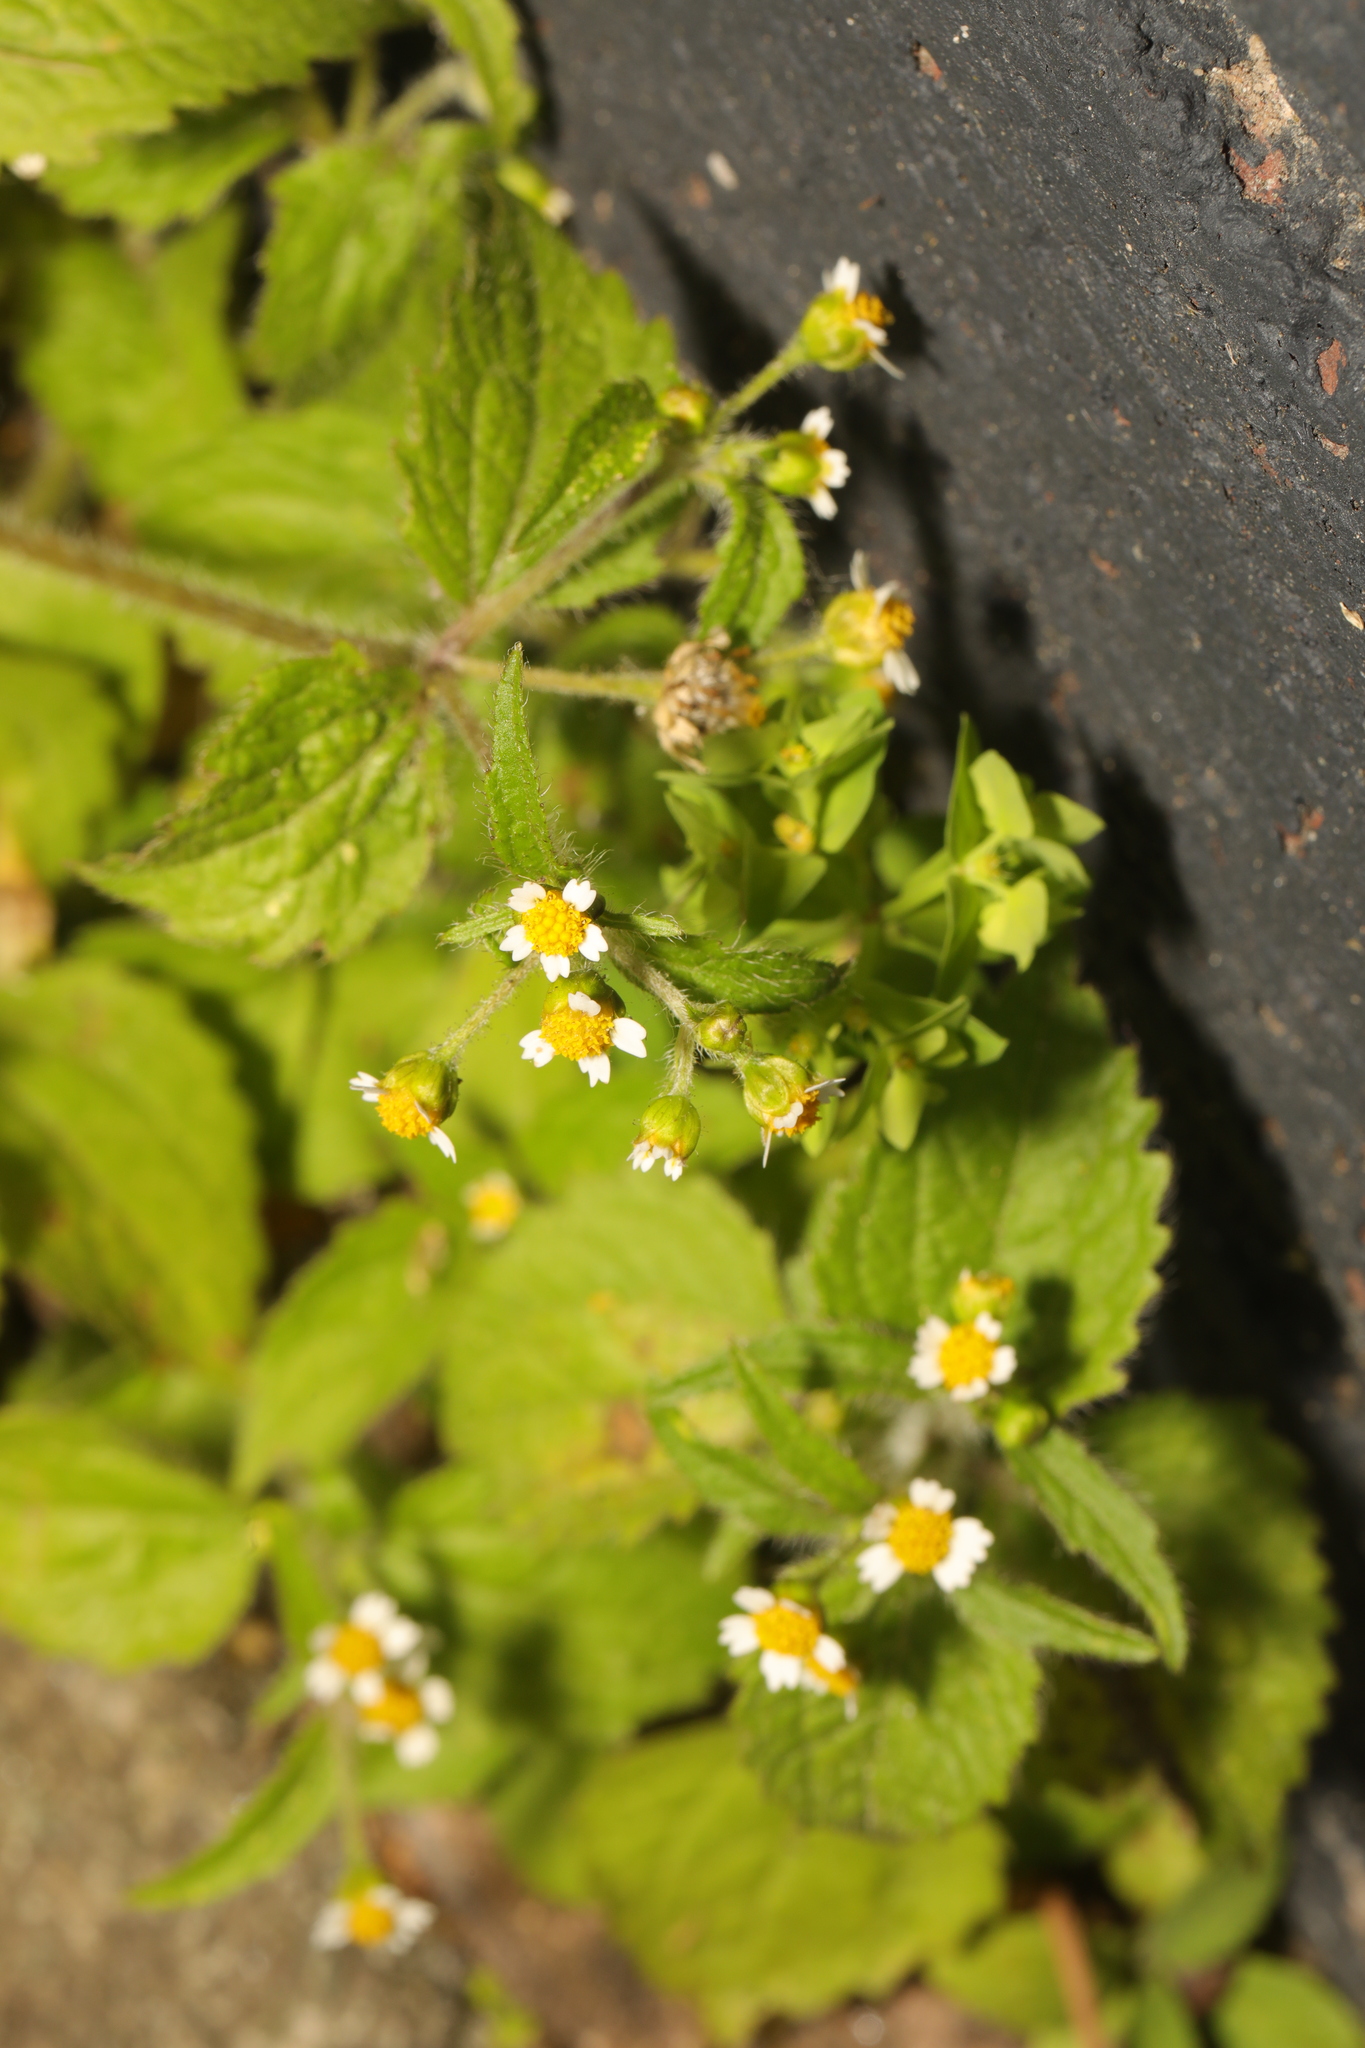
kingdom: Plantae
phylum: Tracheophyta
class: Magnoliopsida
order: Asterales
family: Asteraceae
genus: Galinsoga
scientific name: Galinsoga quadriradiata
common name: Shaggy soldier
